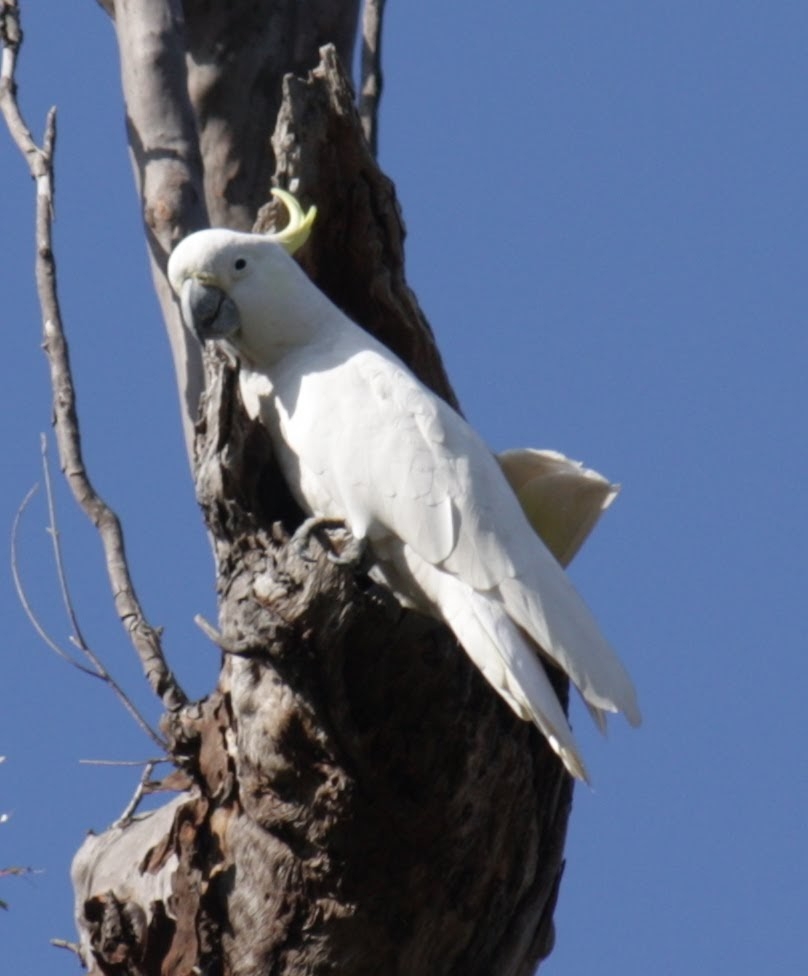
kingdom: Animalia
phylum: Chordata
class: Aves
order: Psittaciformes
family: Psittacidae
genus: Cacatua
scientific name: Cacatua galerita
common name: Sulphur-crested cockatoo
